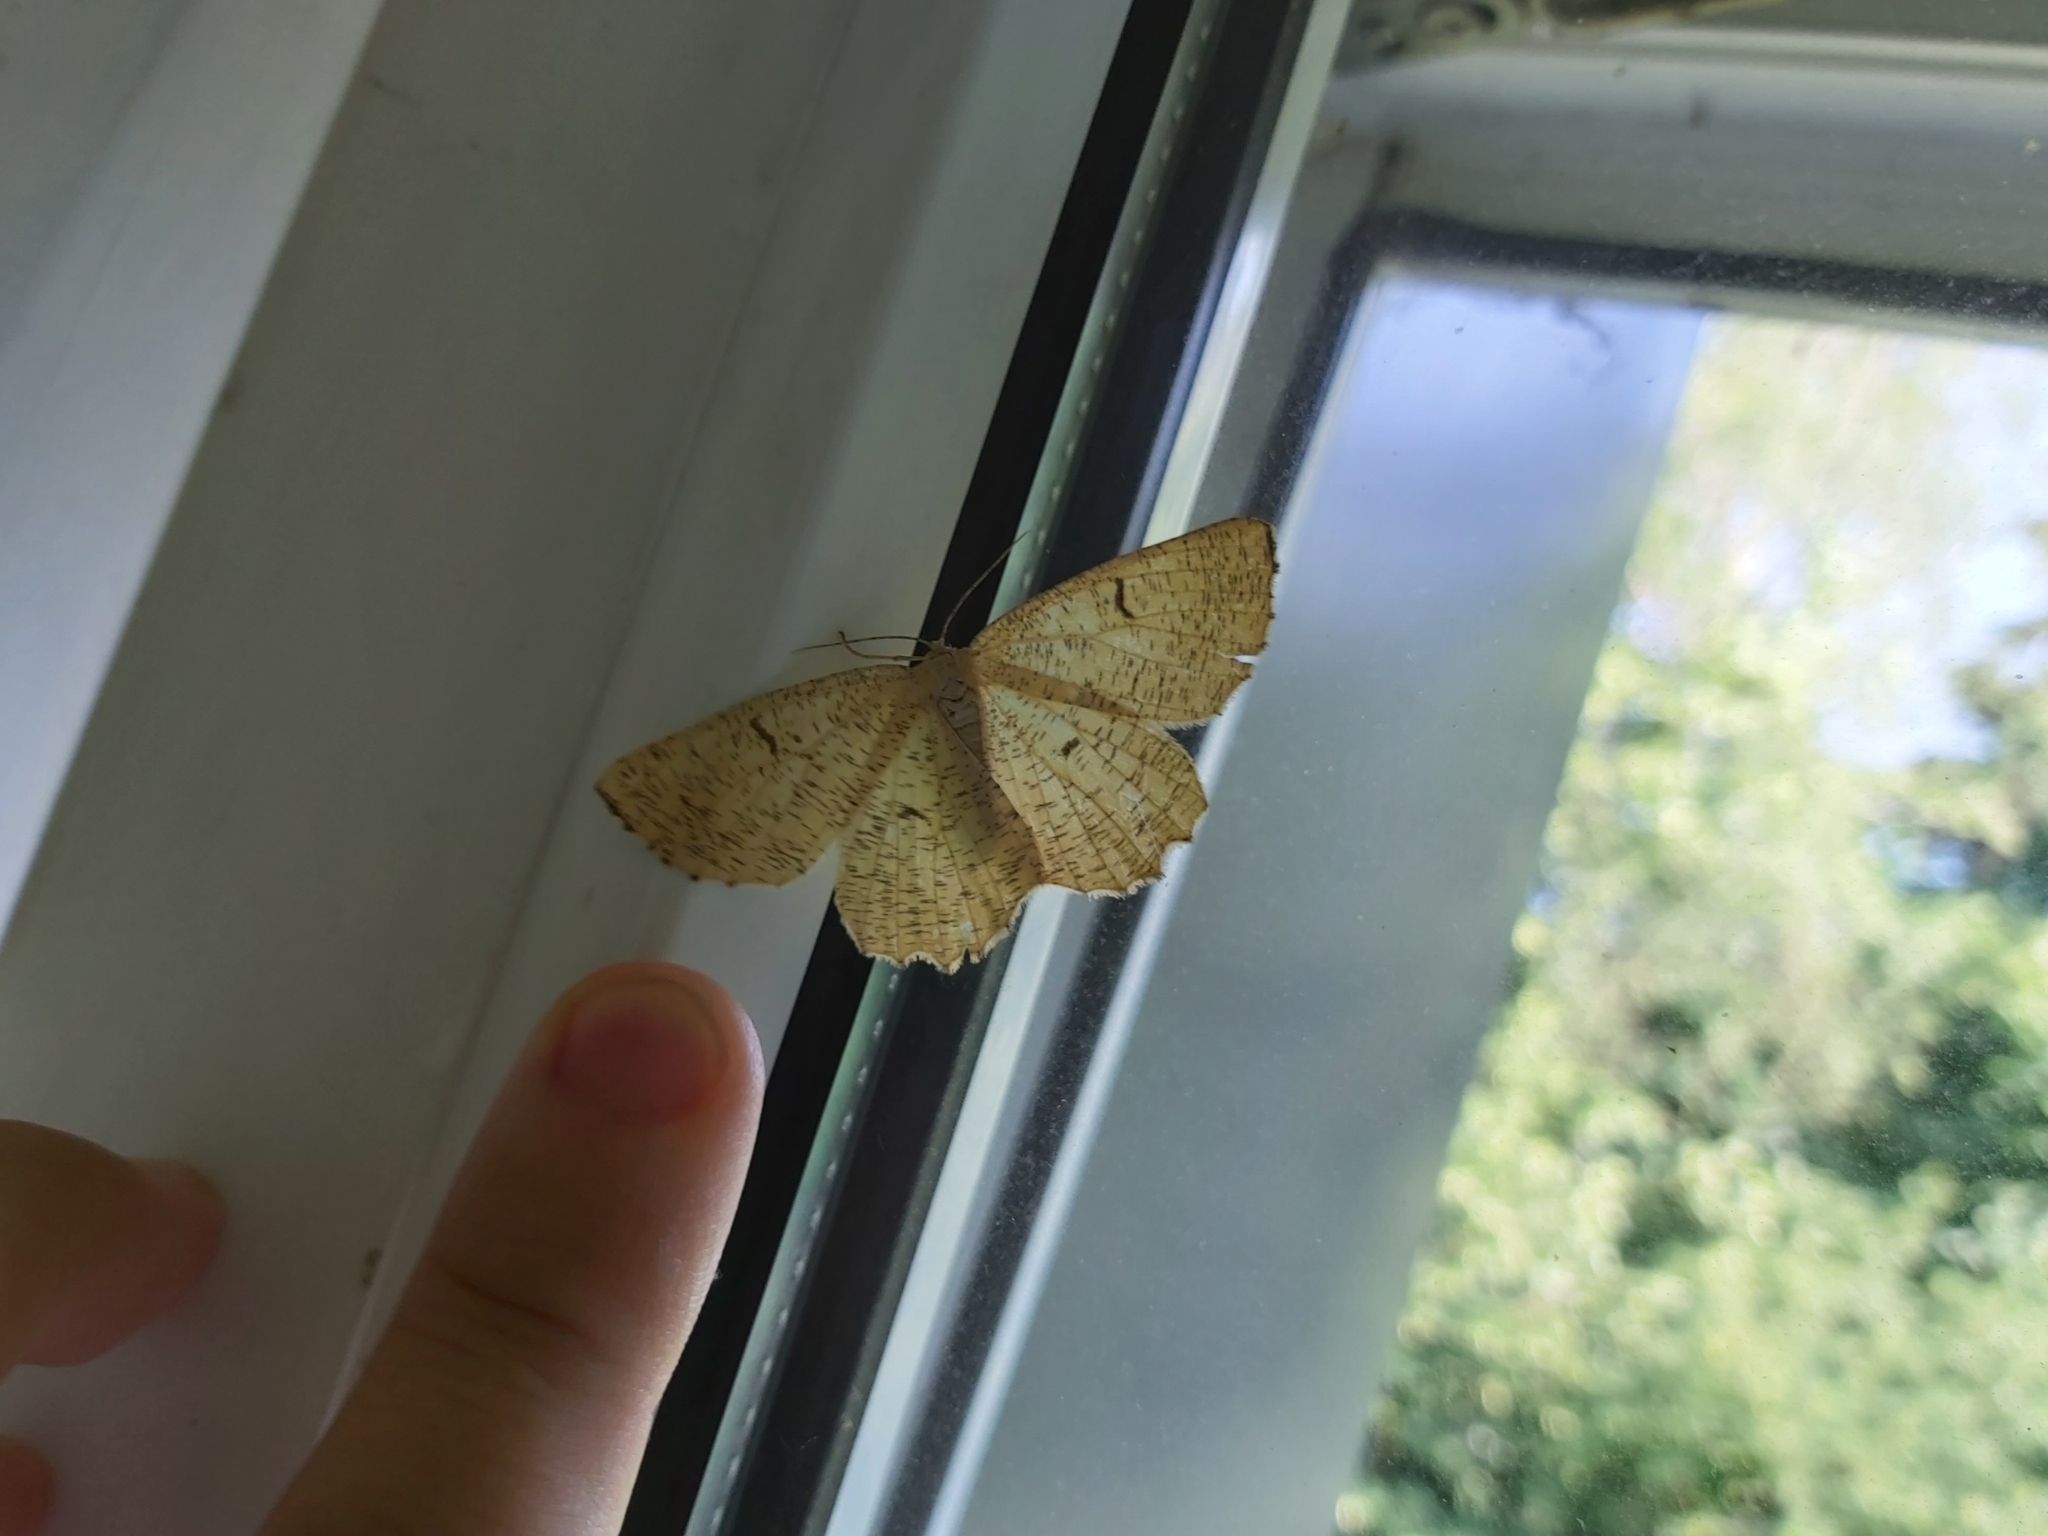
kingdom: Animalia
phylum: Arthropoda
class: Insecta
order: Lepidoptera
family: Geometridae
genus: Angerona
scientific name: Angerona prunaria
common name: Orange moth
